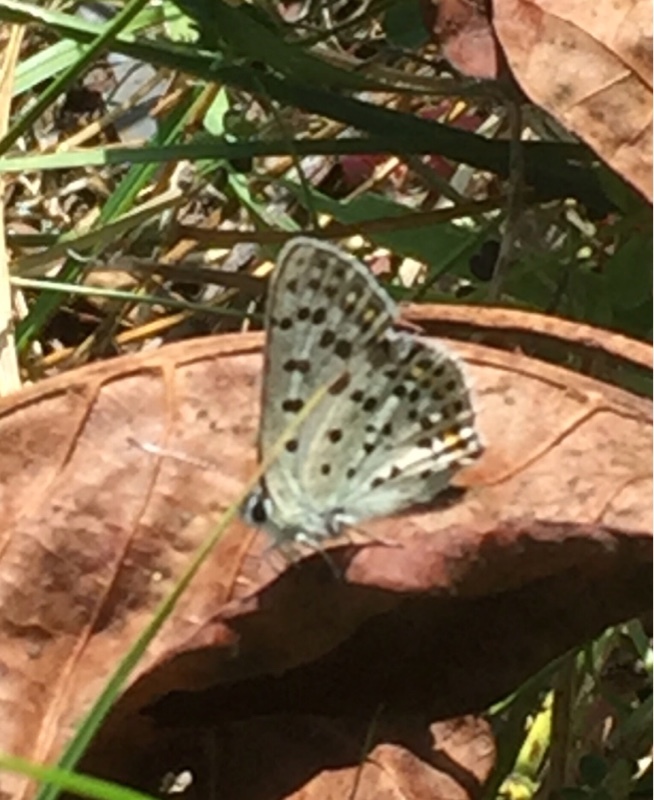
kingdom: Animalia
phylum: Arthropoda
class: Insecta
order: Lepidoptera
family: Lycaenidae
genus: Loweia
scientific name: Loweia tityrus
